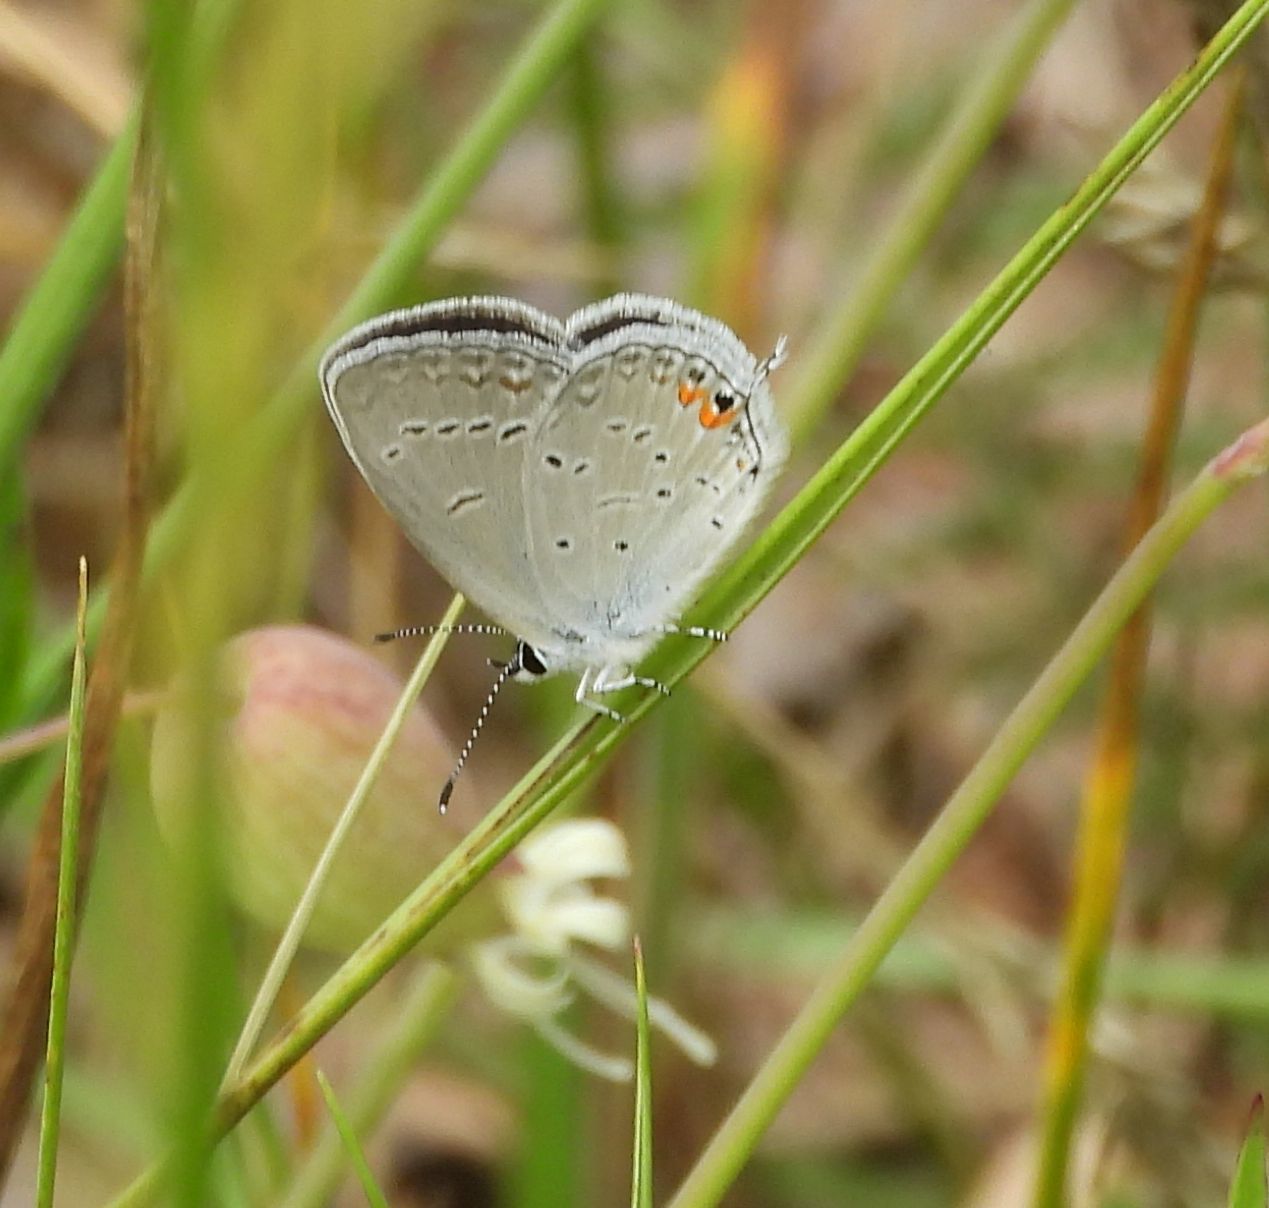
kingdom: Animalia
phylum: Arthropoda
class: Insecta
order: Lepidoptera
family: Lycaenidae
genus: Elkalyce
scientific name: Elkalyce comyntas
